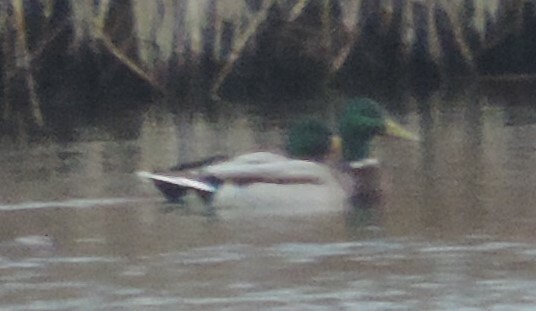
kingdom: Animalia
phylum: Chordata
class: Aves
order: Anseriformes
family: Anatidae
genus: Anas
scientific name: Anas platyrhynchos
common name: Mallard
